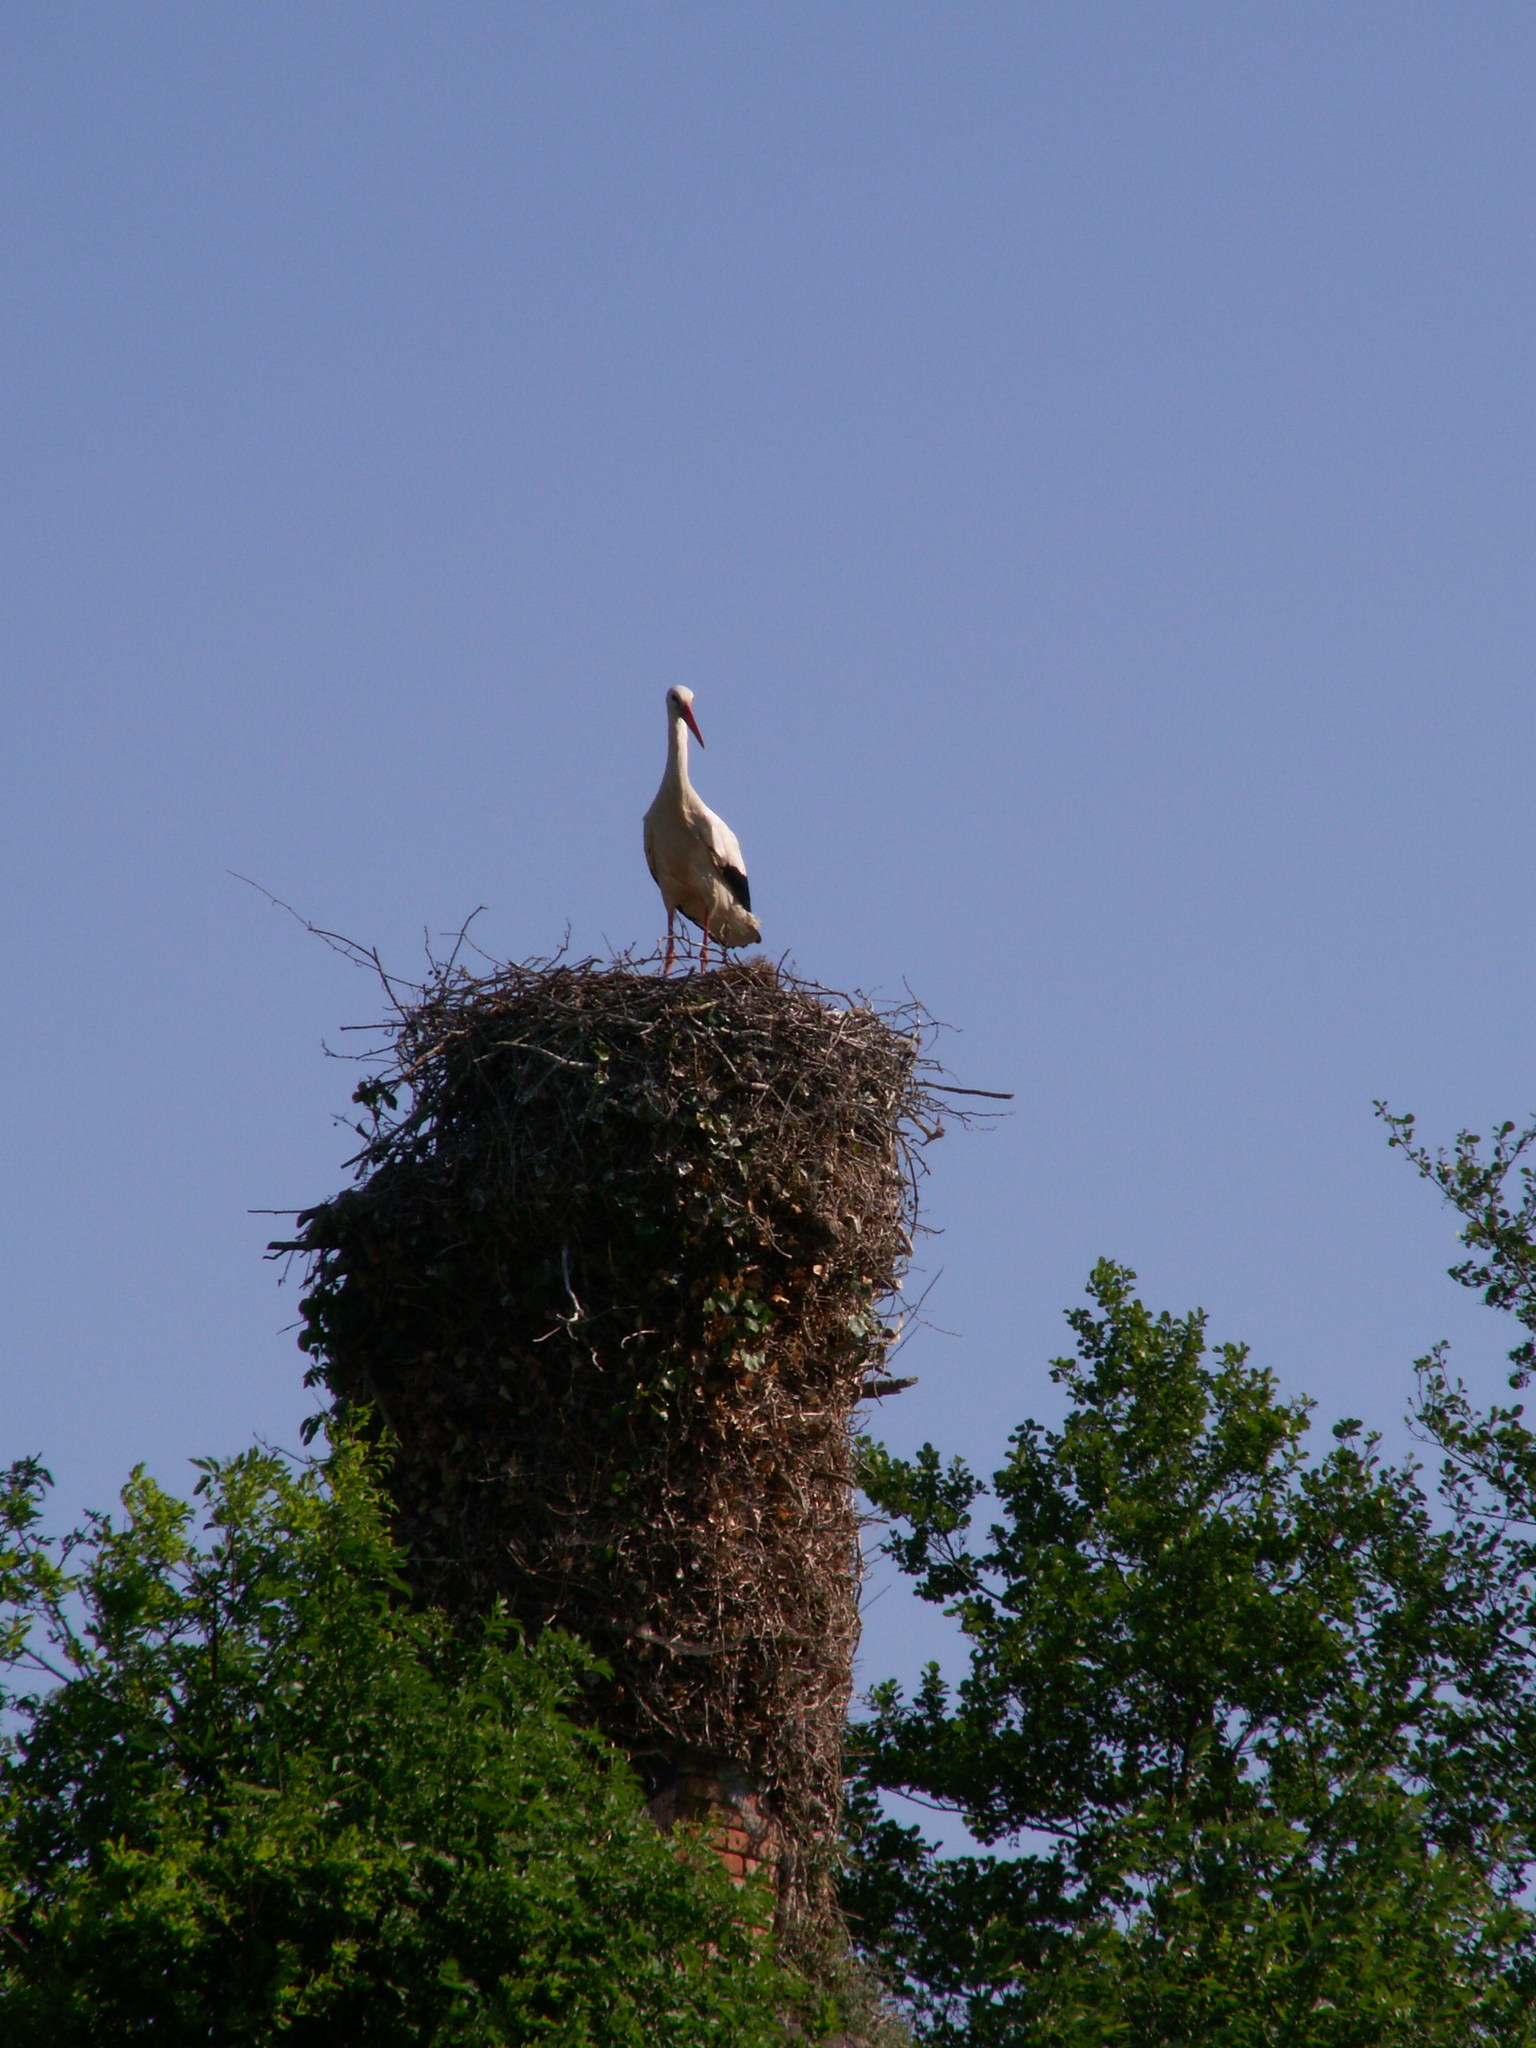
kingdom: Animalia
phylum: Chordata
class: Aves
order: Ciconiiformes
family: Ciconiidae
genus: Ciconia
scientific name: Ciconia ciconia
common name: White stork
